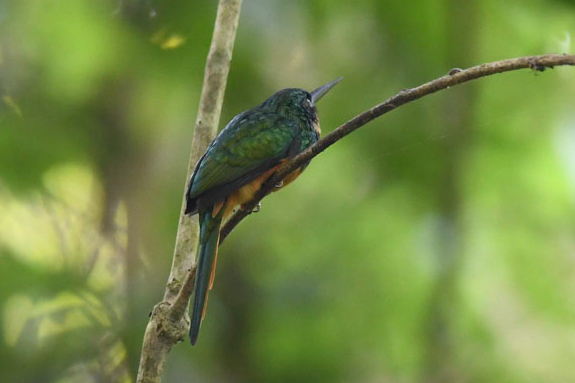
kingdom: Animalia
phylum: Chordata
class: Aves
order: Piciformes
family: Galbulidae
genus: Galbula
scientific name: Galbula ruficauda
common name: Rufous-tailed jacamar
